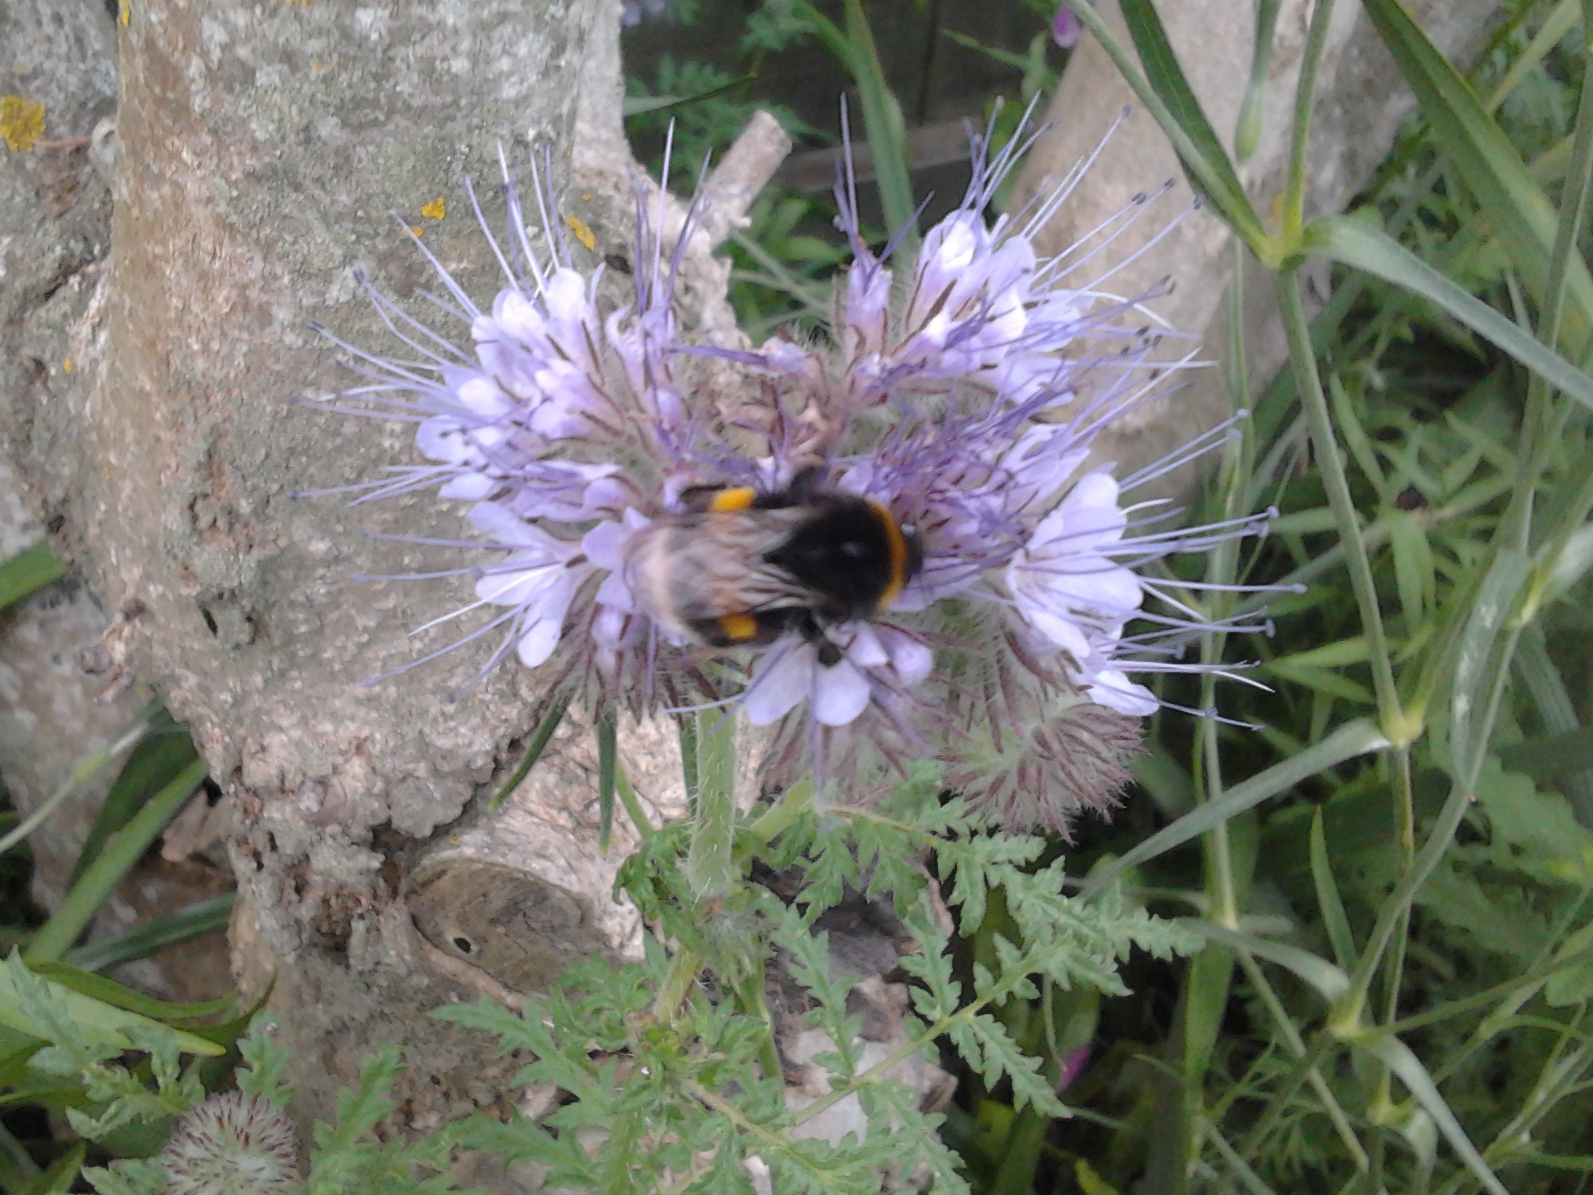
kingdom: Animalia
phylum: Arthropoda
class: Insecta
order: Hymenoptera
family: Apidae
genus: Bombus
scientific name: Bombus terrestris
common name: Buff-tailed bumblebee
